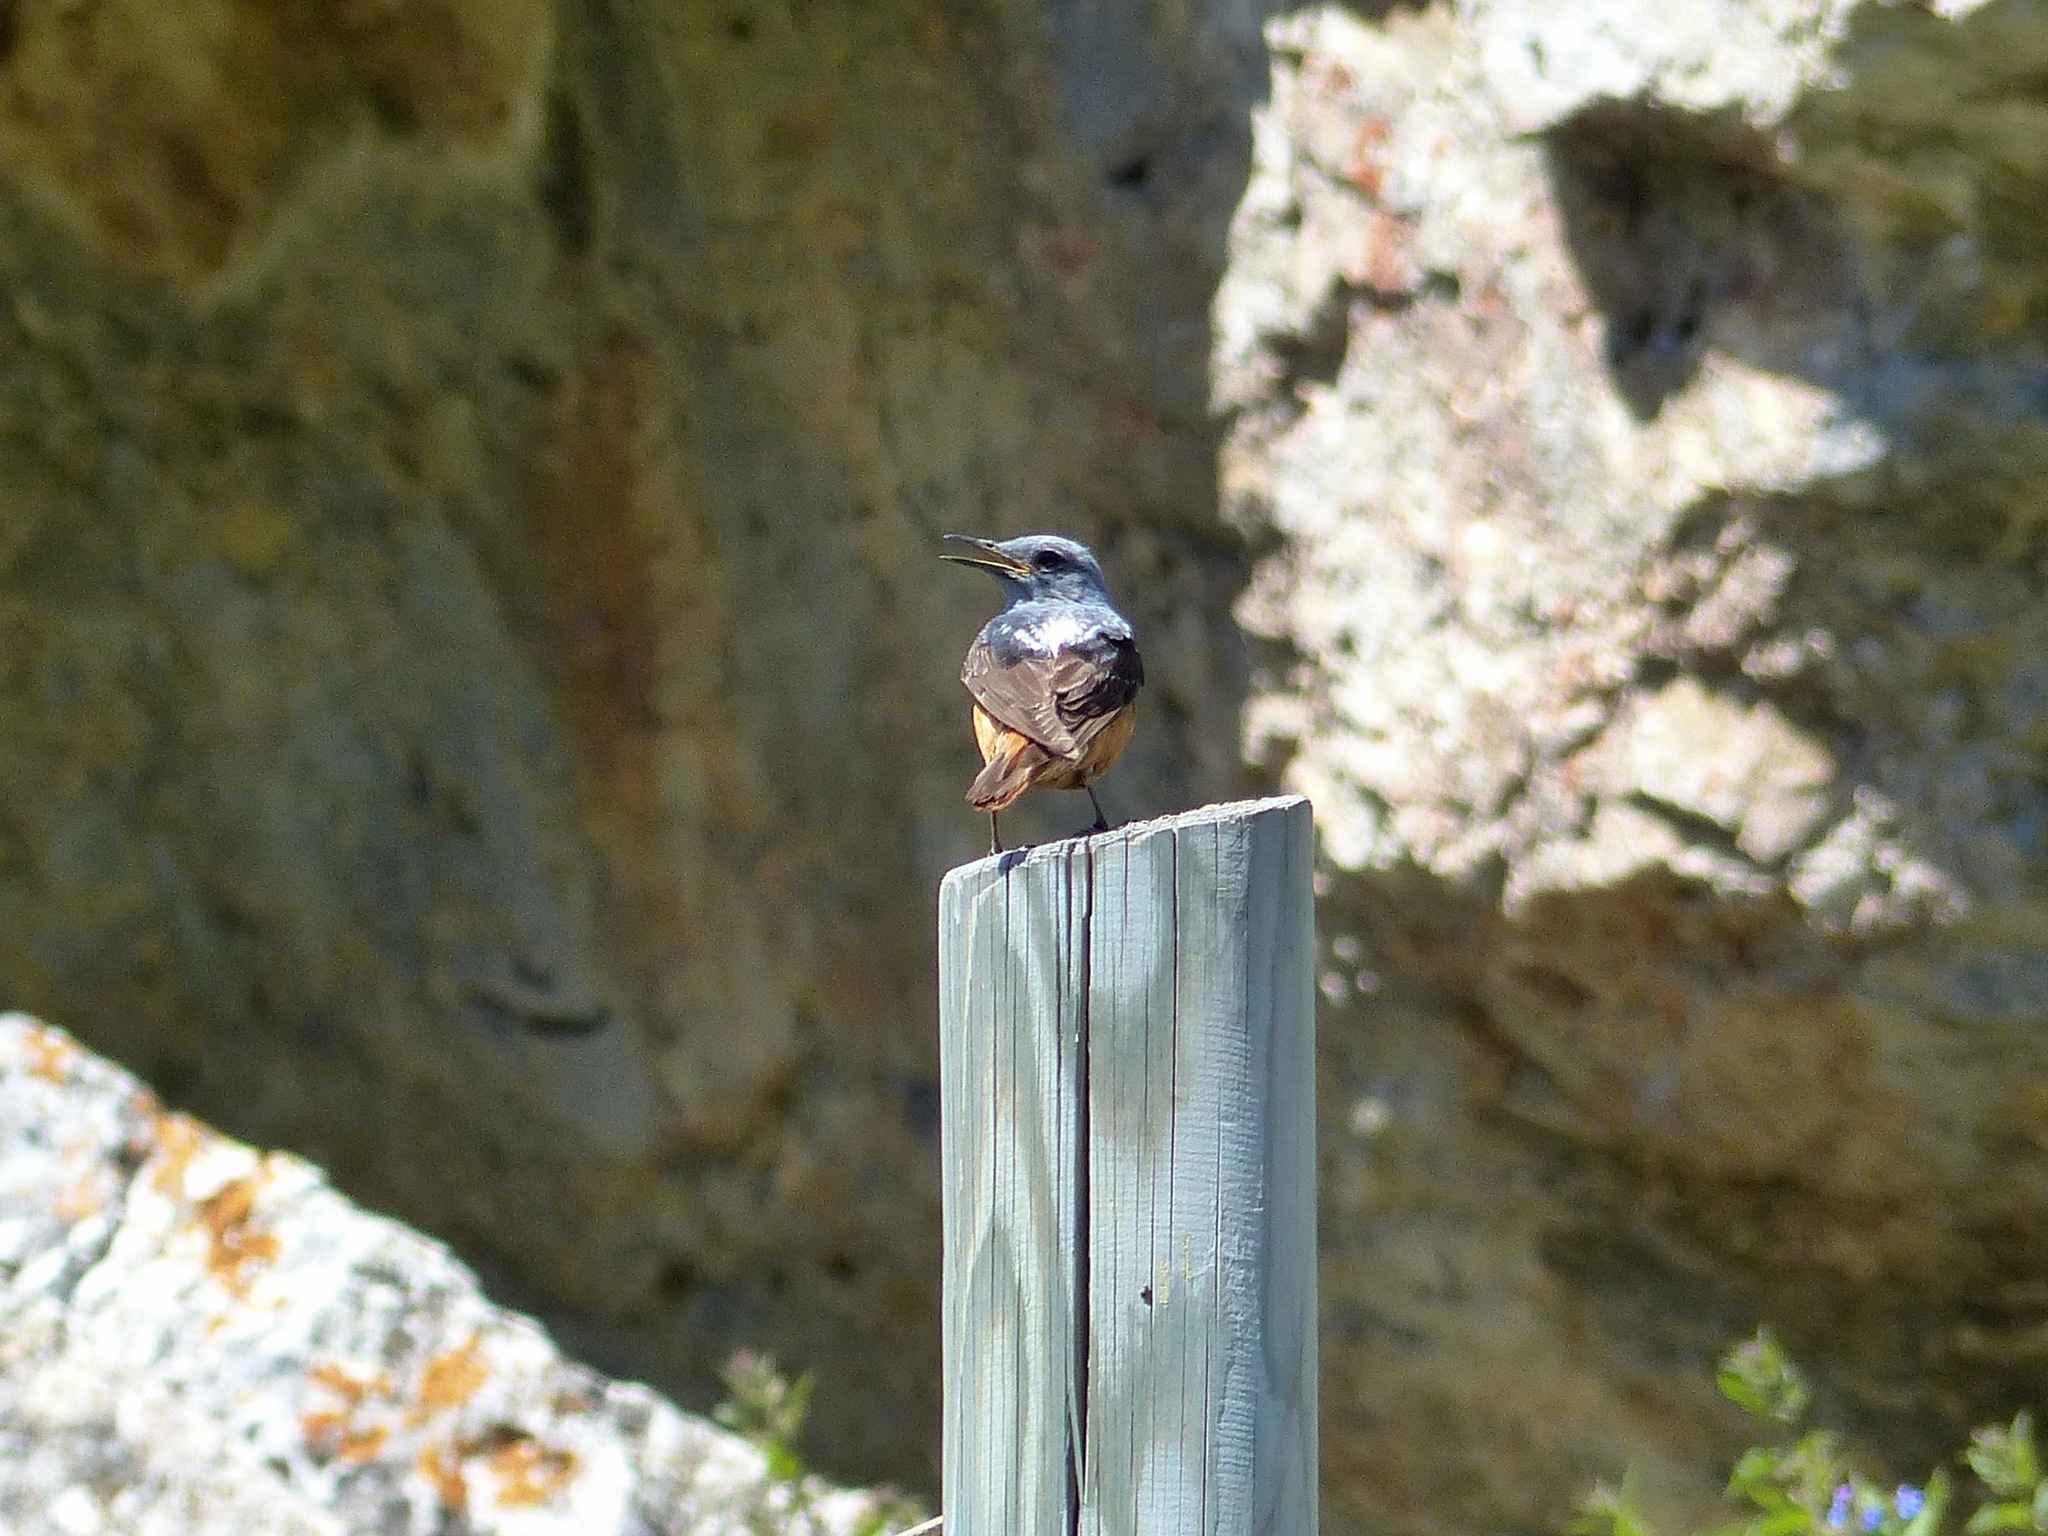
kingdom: Animalia
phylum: Chordata
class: Aves
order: Passeriformes
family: Muscicapidae
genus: Monticola
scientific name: Monticola saxatilis
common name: Rufous-tailed rock thrush
